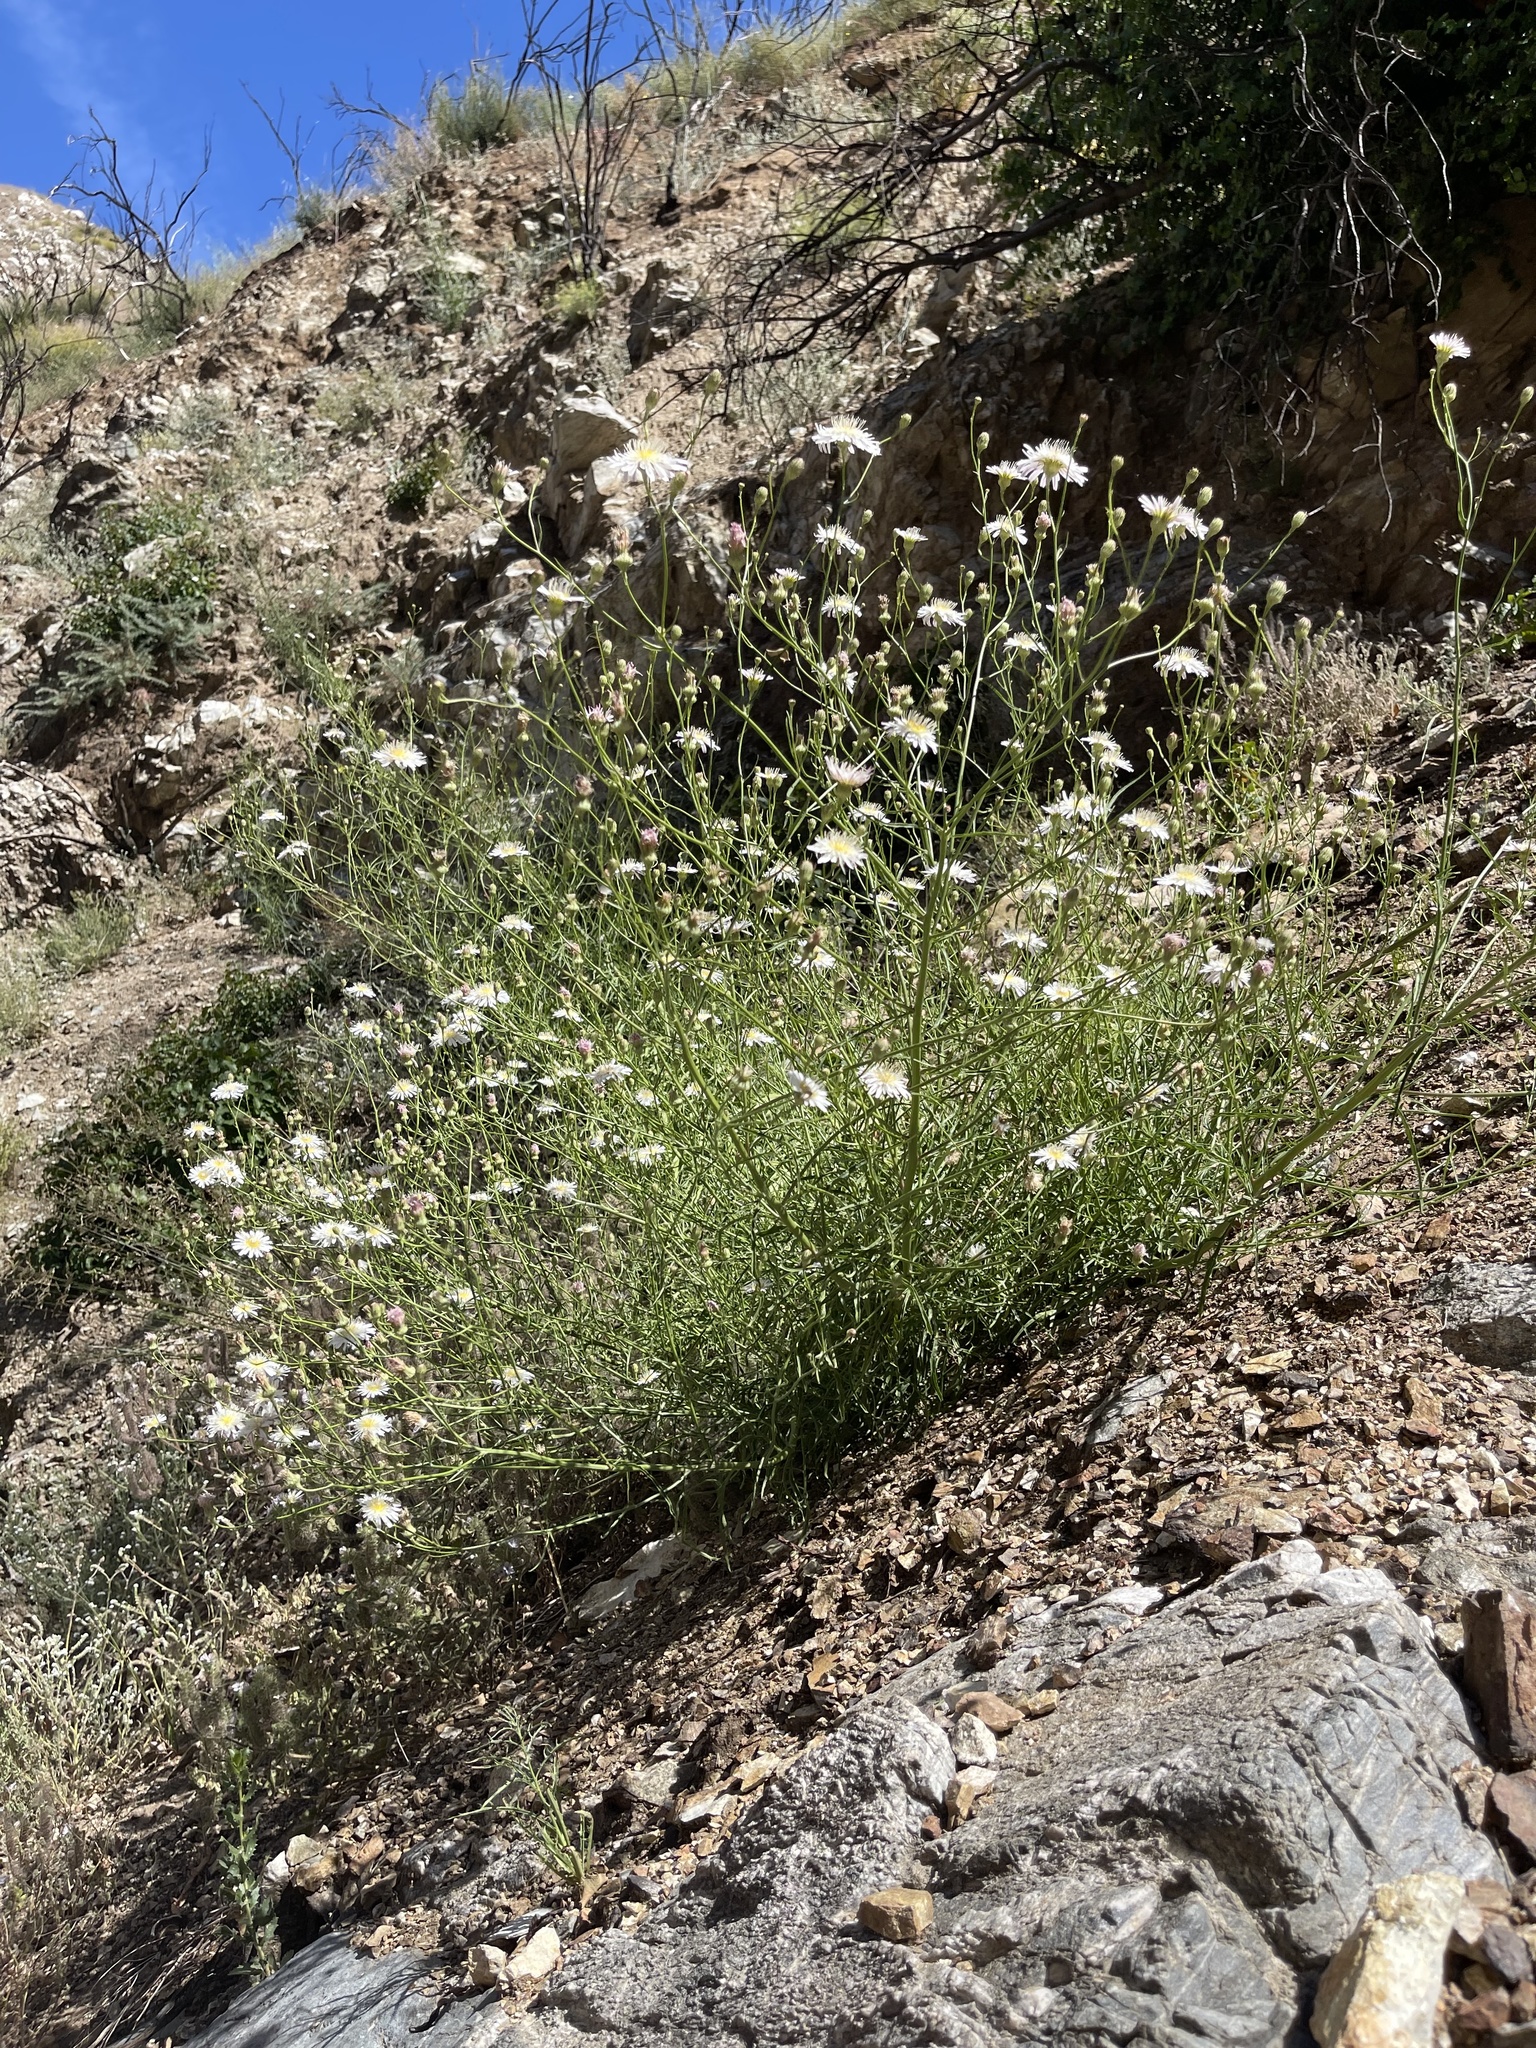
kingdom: Plantae
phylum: Tracheophyta
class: Magnoliopsida
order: Asterales
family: Asteraceae
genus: Malacothrix
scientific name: Malacothrix saxatilis
